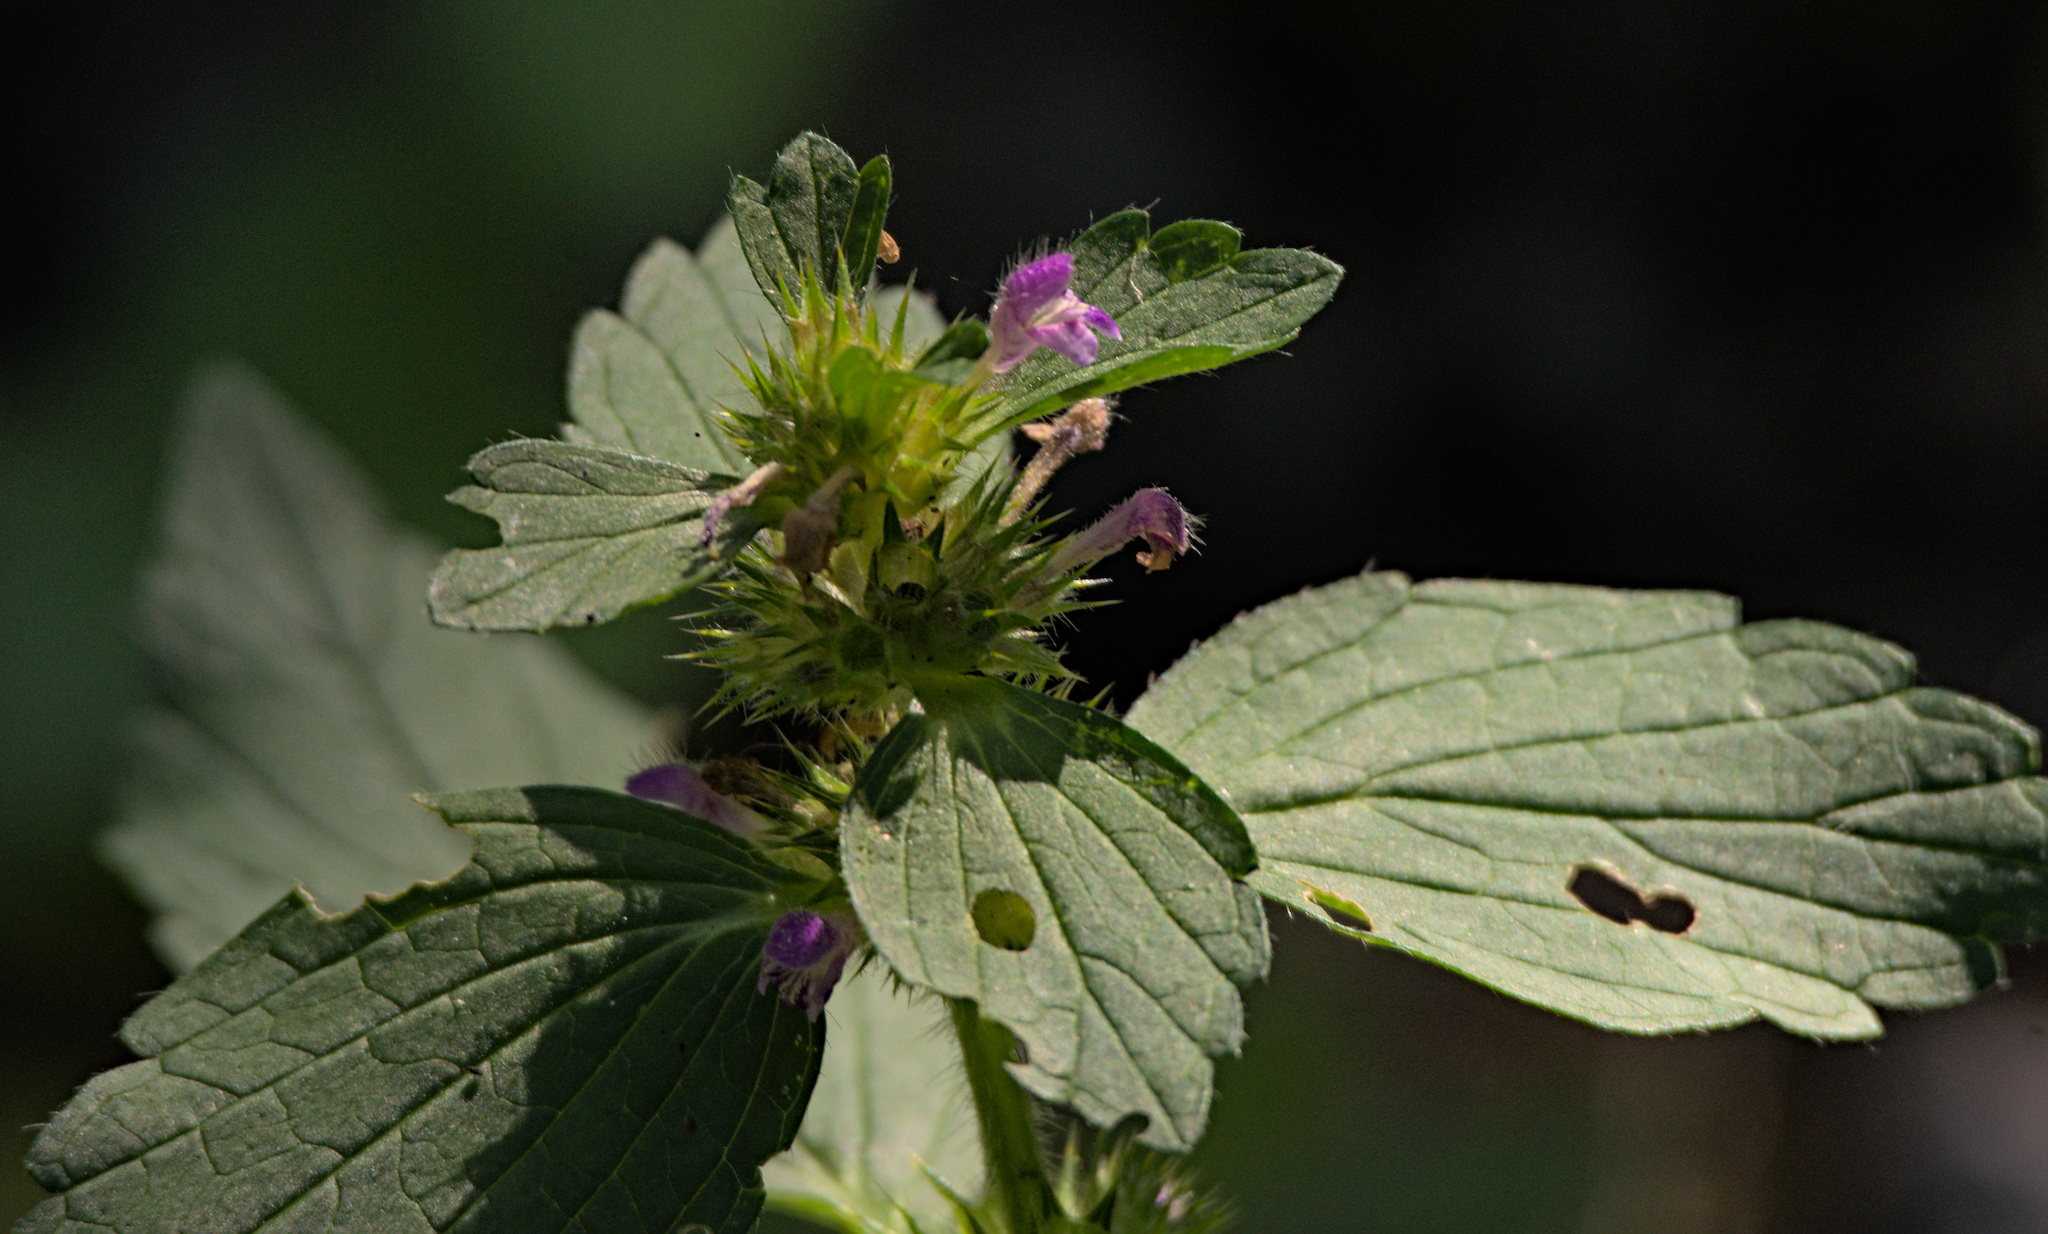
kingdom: Plantae
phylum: Tracheophyta
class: Magnoliopsida
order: Lamiales
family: Lamiaceae
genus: Galeopsis
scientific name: Galeopsis bifida
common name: Bifid hemp-nettle
